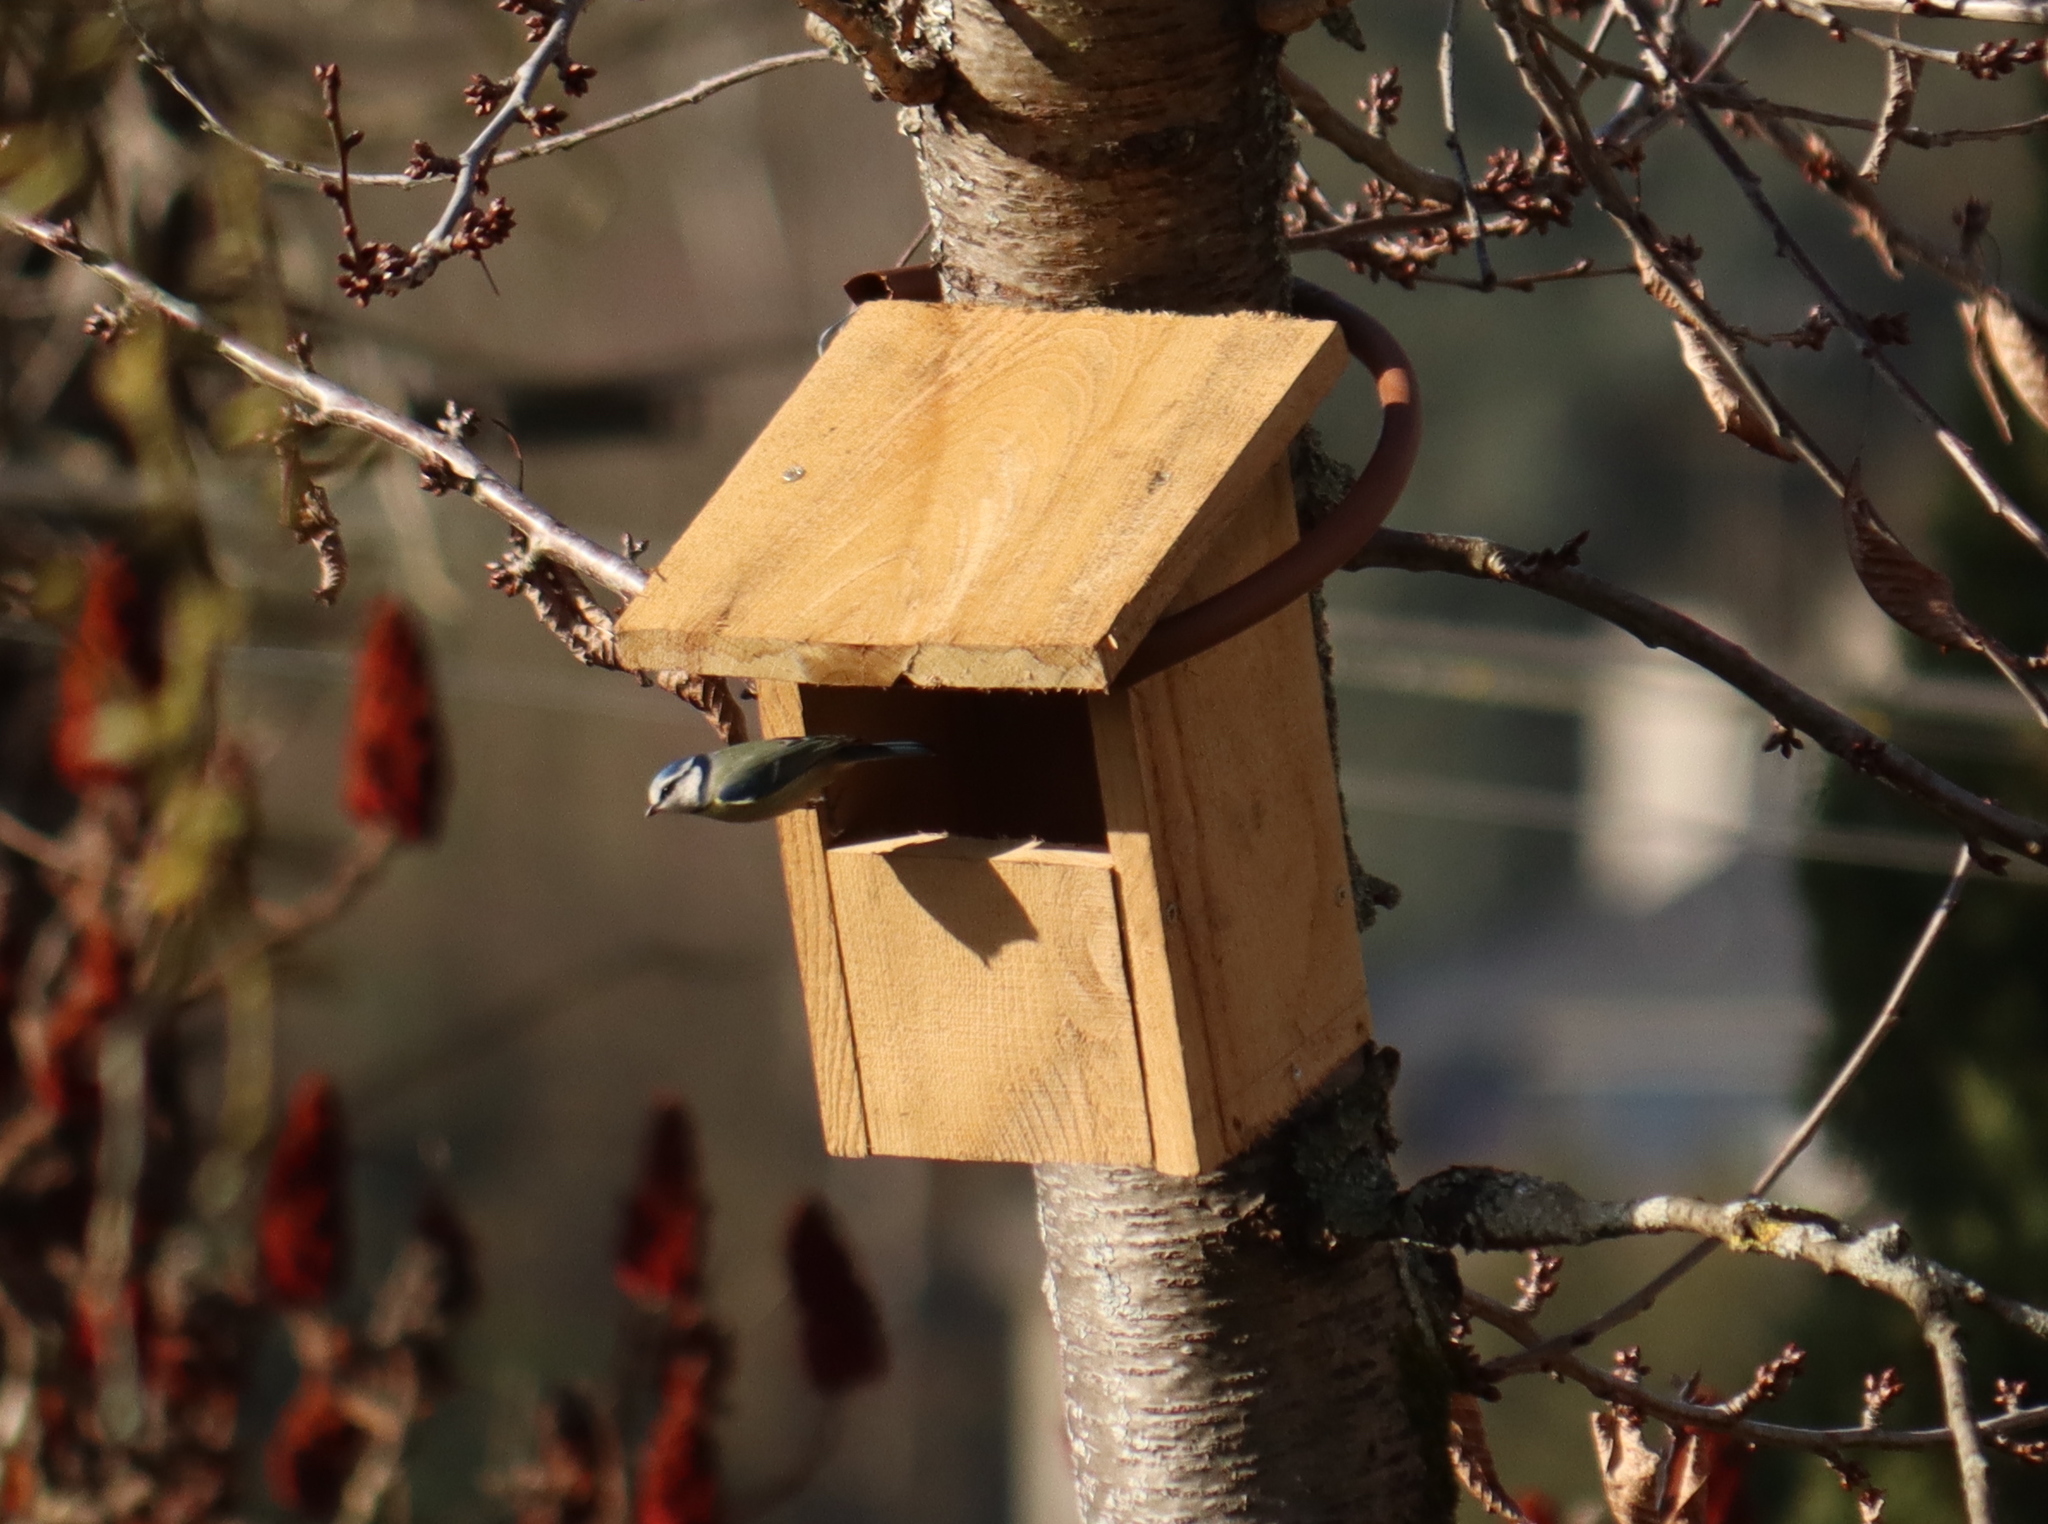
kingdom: Animalia
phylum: Chordata
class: Aves
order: Passeriformes
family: Paridae
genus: Cyanistes
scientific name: Cyanistes caeruleus
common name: Eurasian blue tit
